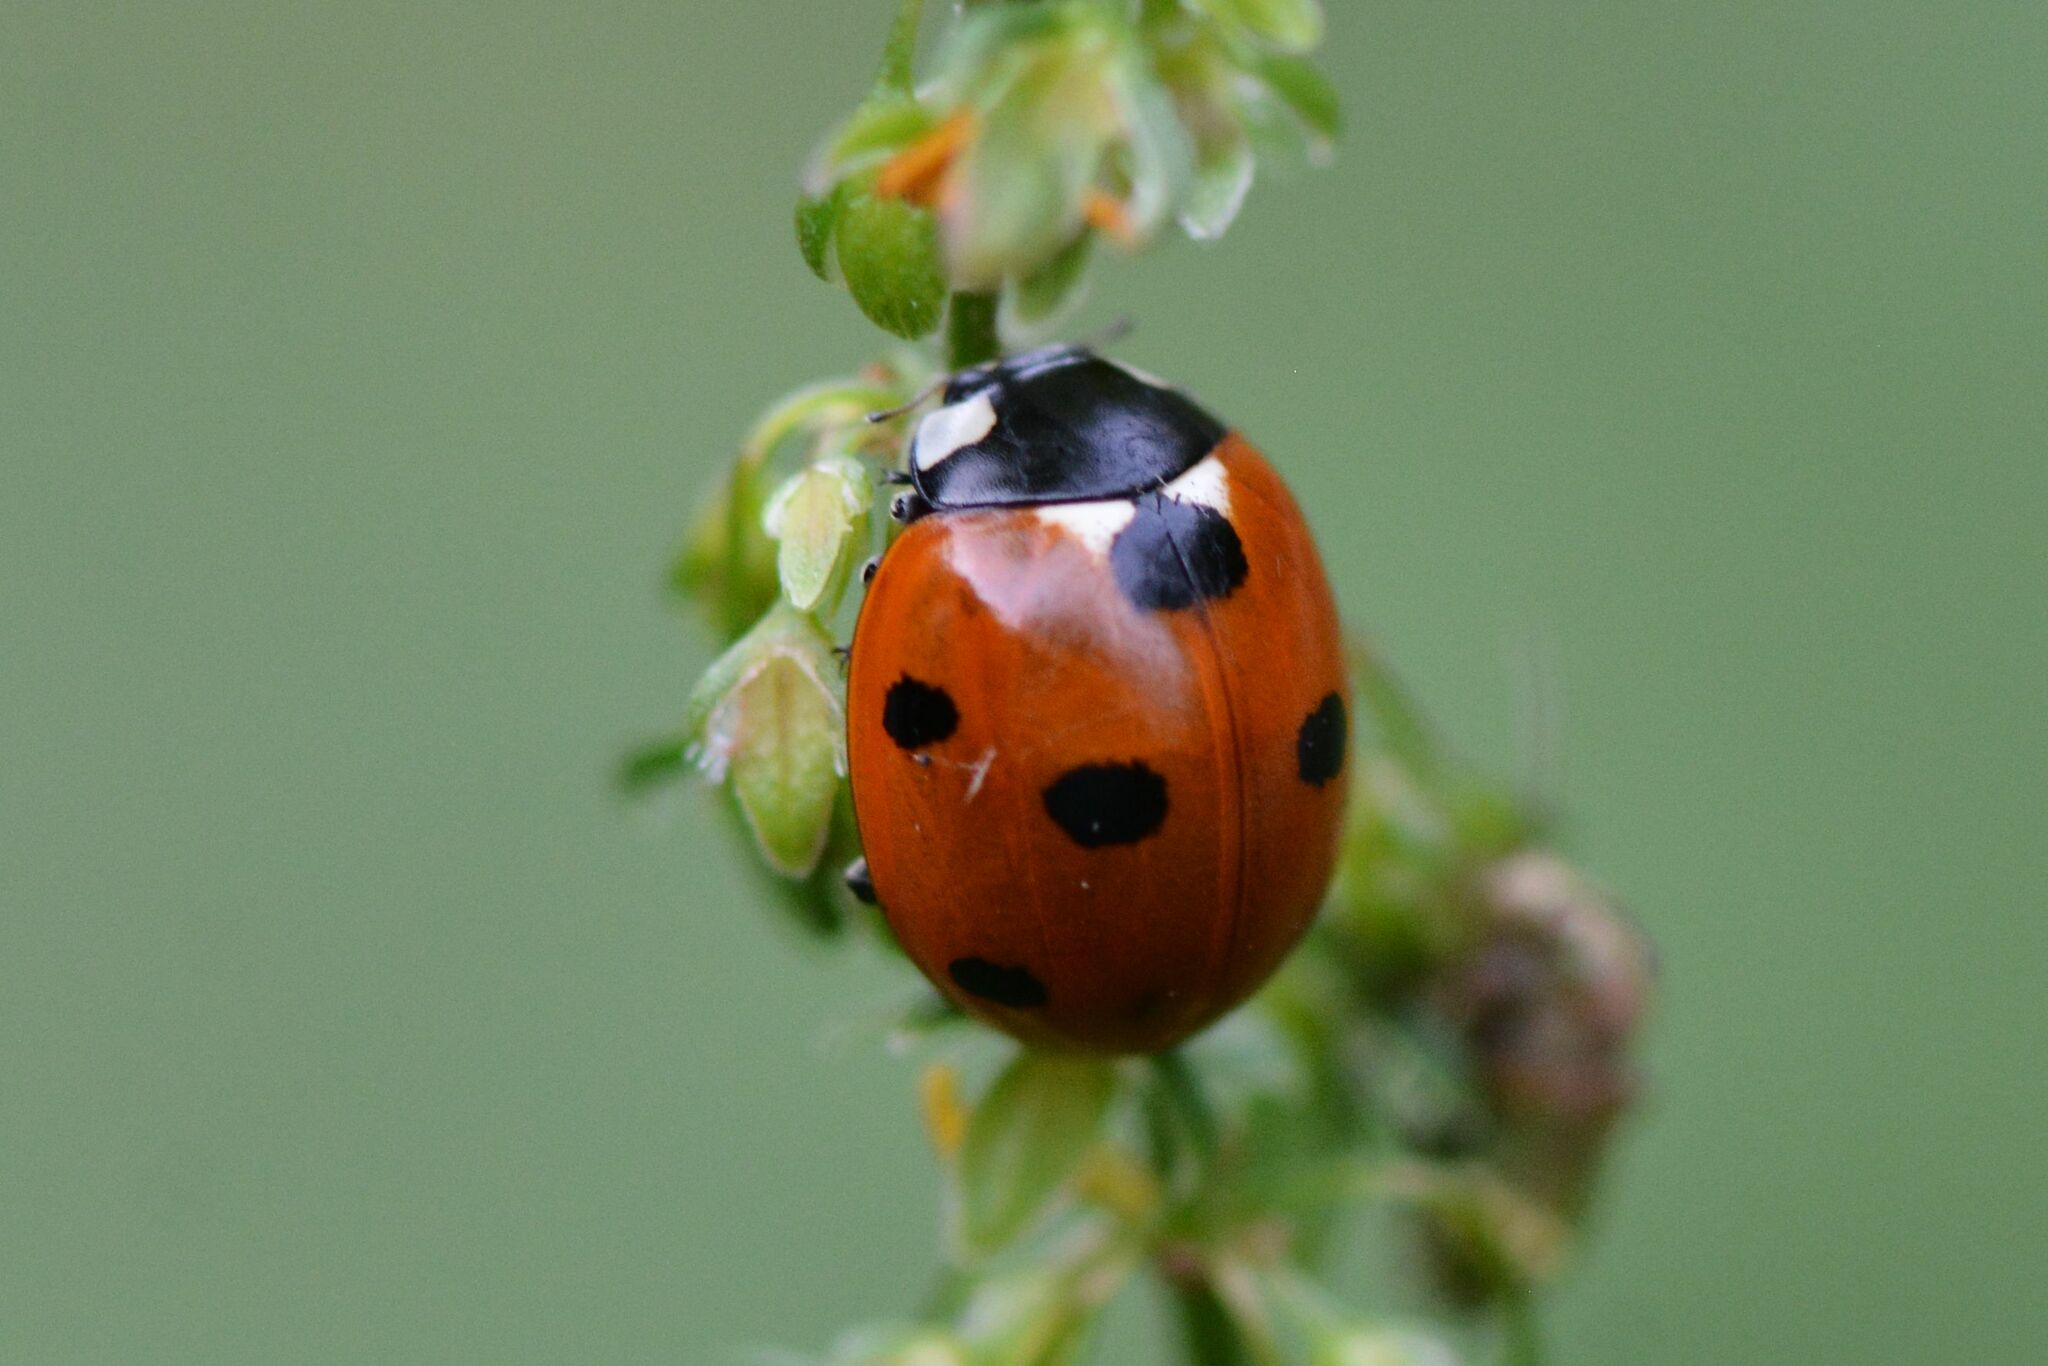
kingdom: Animalia
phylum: Arthropoda
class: Insecta
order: Coleoptera
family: Coccinellidae
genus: Coccinella
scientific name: Coccinella septempunctata
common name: Sevenspotted lady beetle
